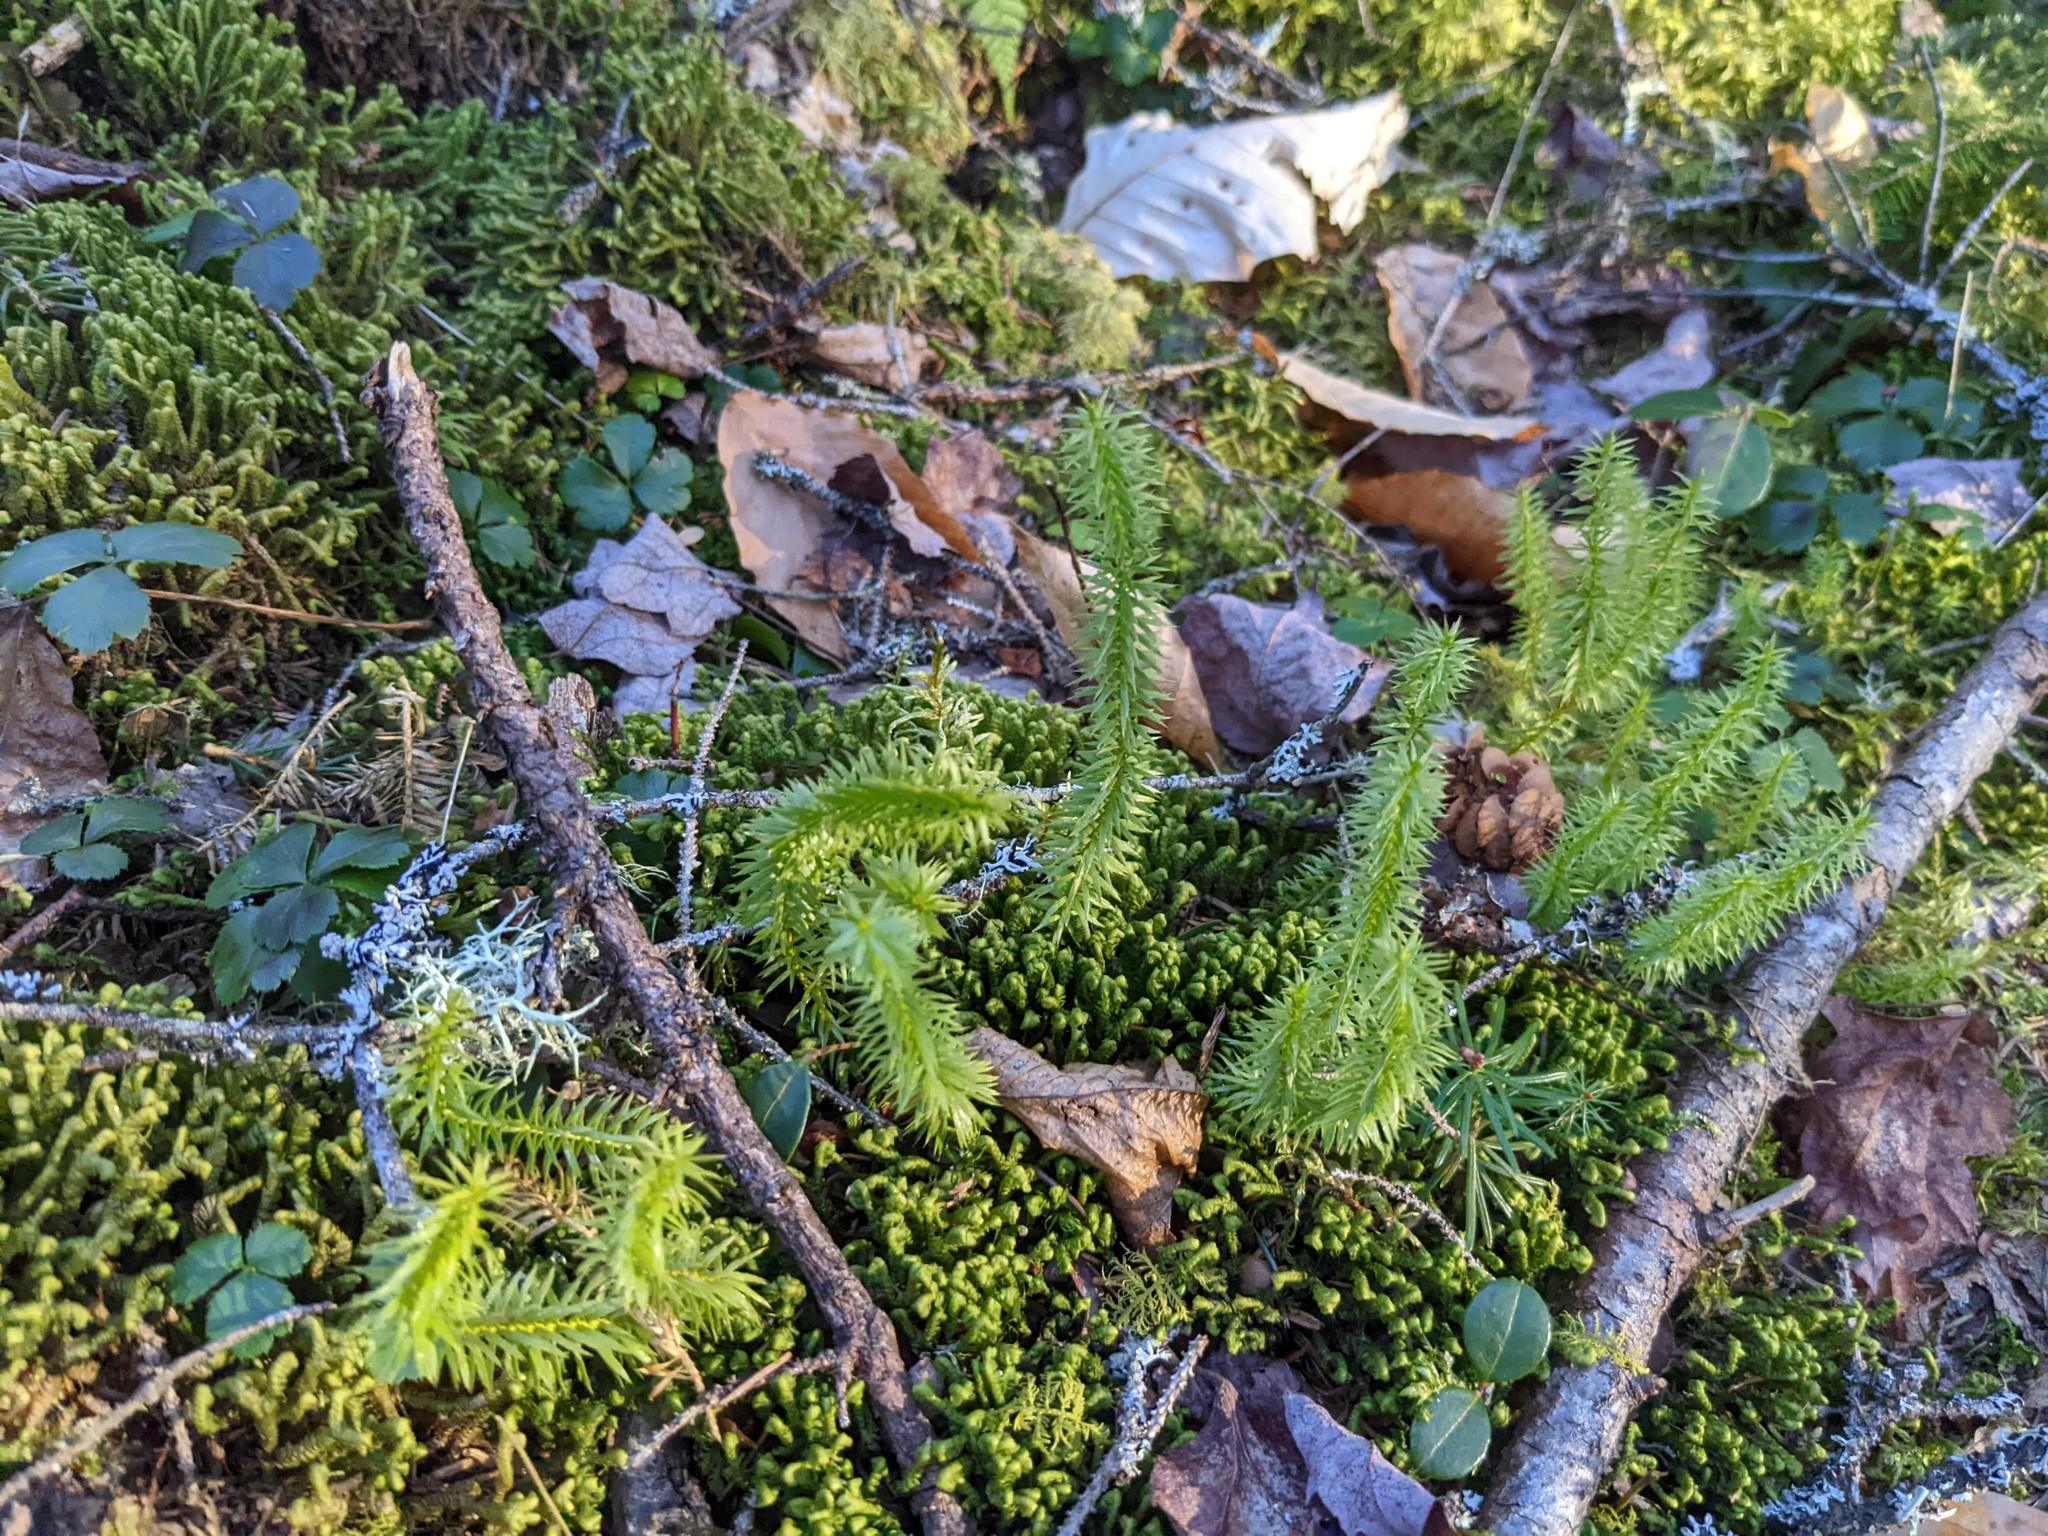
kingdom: Plantae
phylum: Tracheophyta
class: Lycopodiopsida
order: Lycopodiales
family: Lycopodiaceae
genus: Spinulum
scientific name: Spinulum annotinum
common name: Interrupted club-moss
